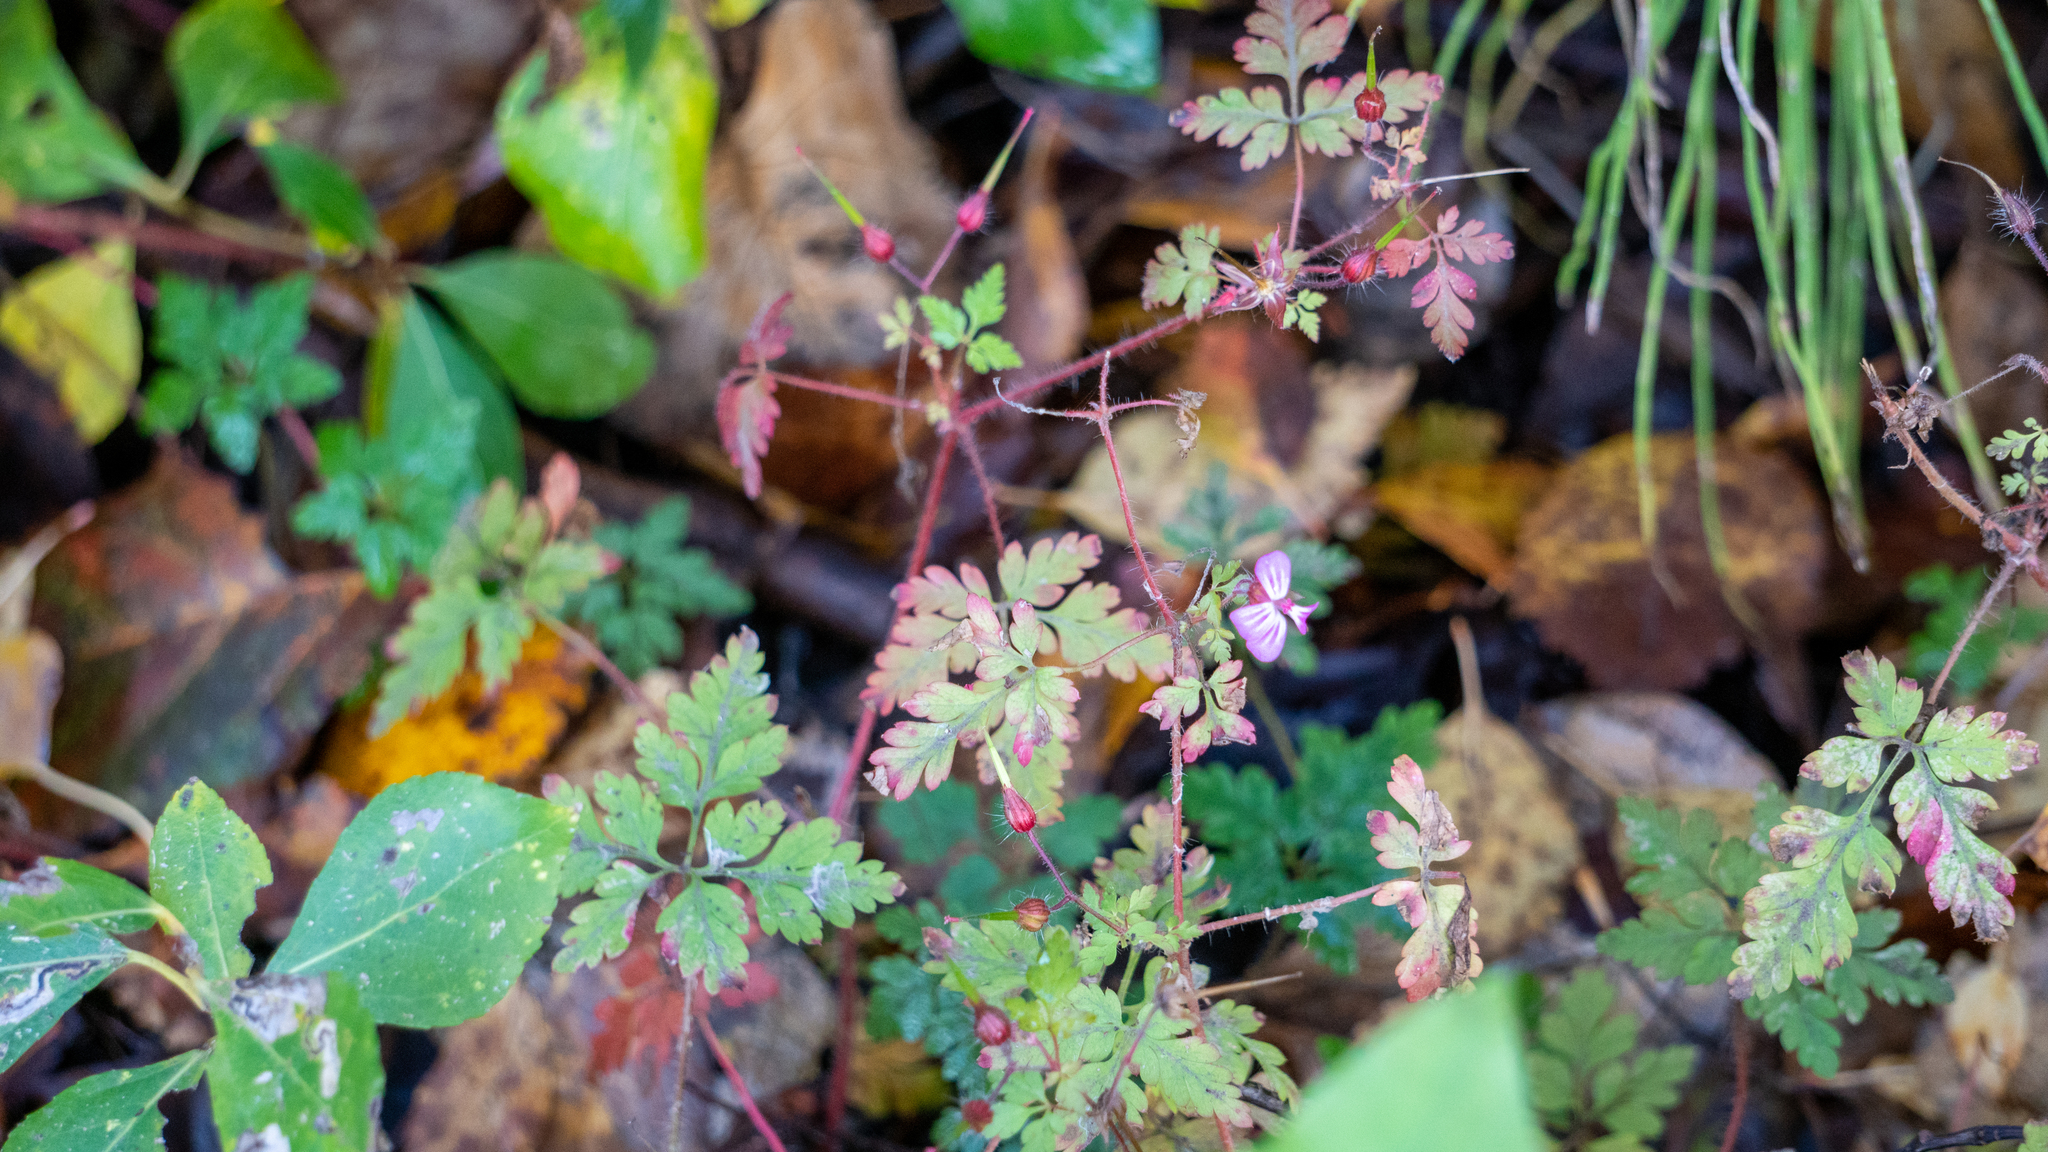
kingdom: Plantae
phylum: Tracheophyta
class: Magnoliopsida
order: Geraniales
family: Geraniaceae
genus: Geranium
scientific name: Geranium robertianum
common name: Herb-robert
